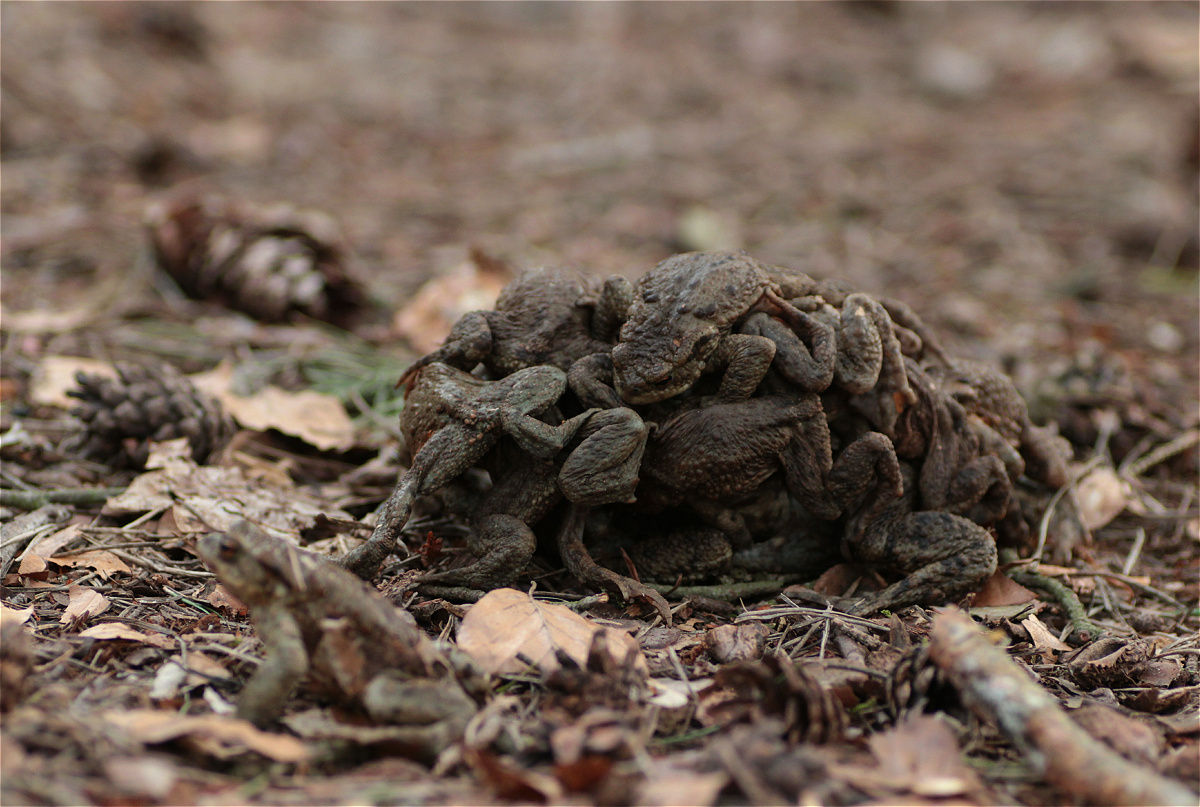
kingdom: Animalia
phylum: Chordata
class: Amphibia
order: Anura
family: Bufonidae
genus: Bufo
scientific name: Bufo bufo
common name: Common toad
